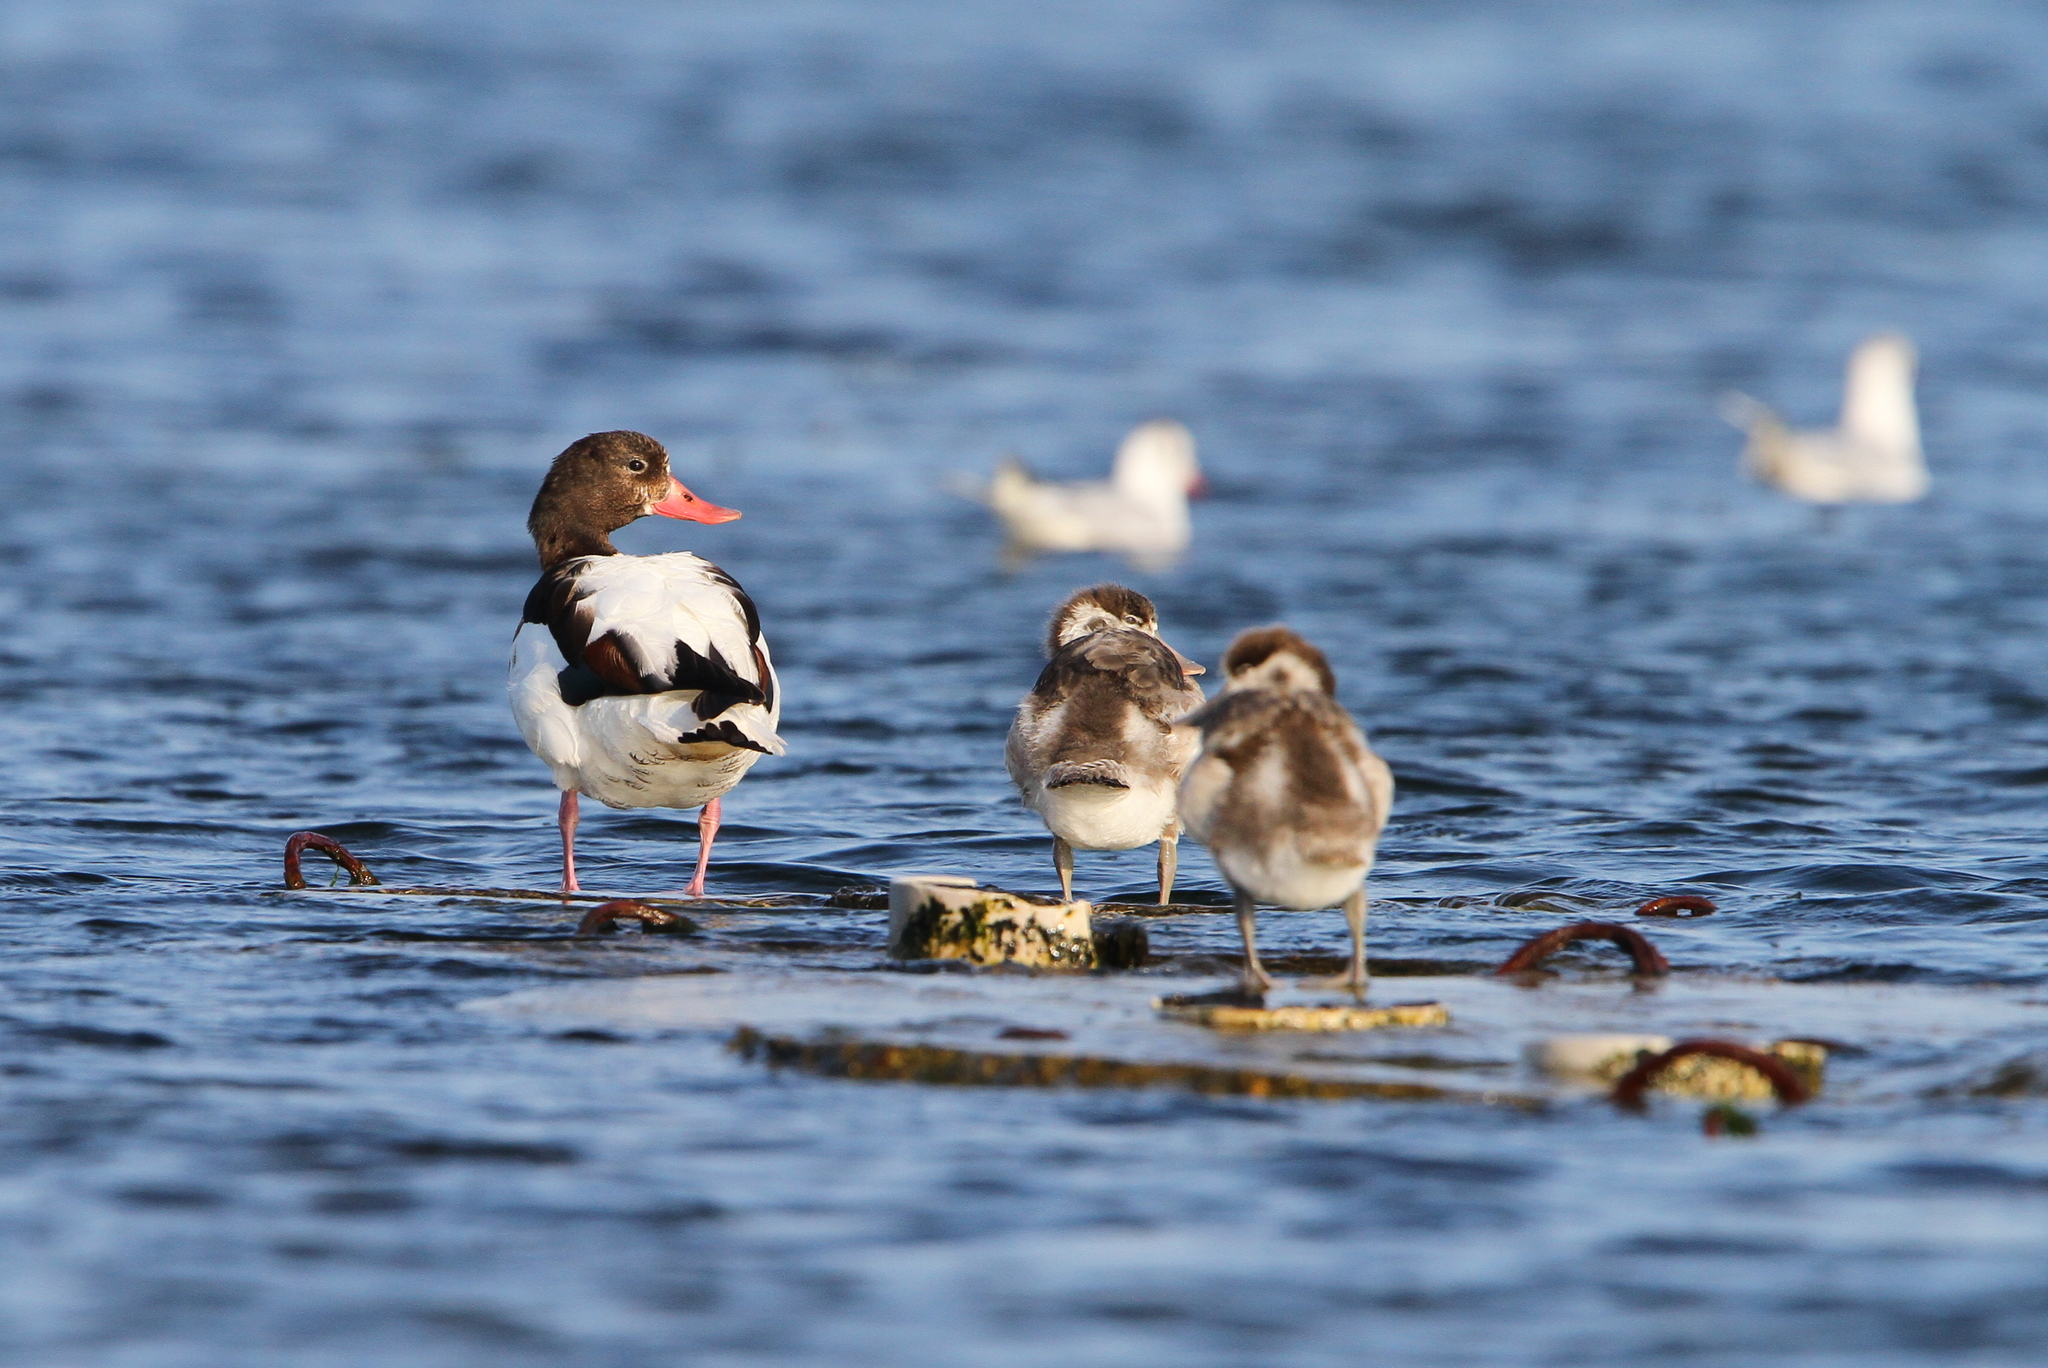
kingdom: Animalia
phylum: Chordata
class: Aves
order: Anseriformes
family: Anatidae
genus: Tadorna
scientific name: Tadorna tadorna
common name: Common shelduck
